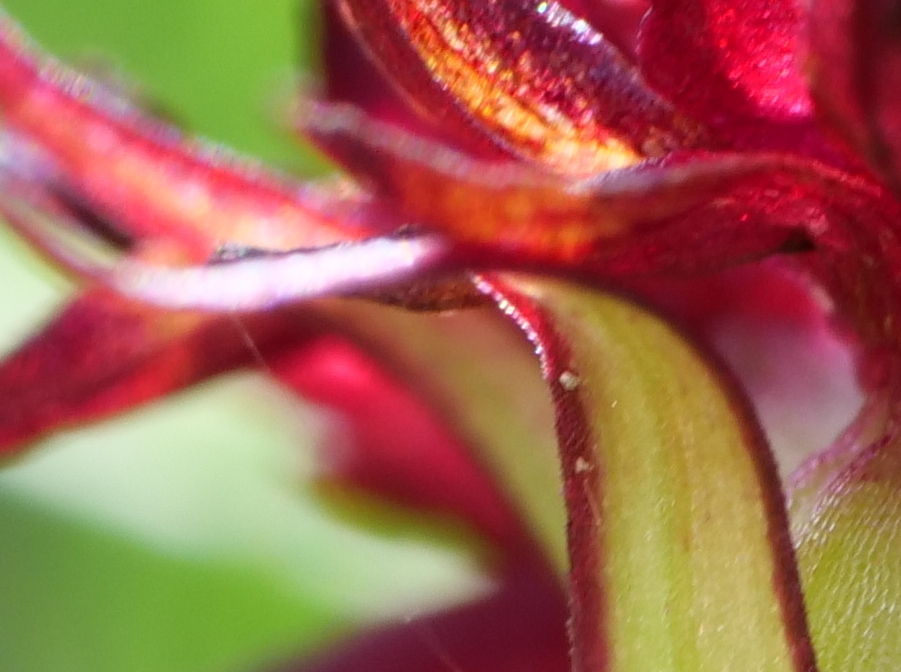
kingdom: Plantae
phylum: Tracheophyta
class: Liliopsida
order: Asparagales
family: Orchidaceae
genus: Gymnadenia
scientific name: Gymnadenia rhellicani
